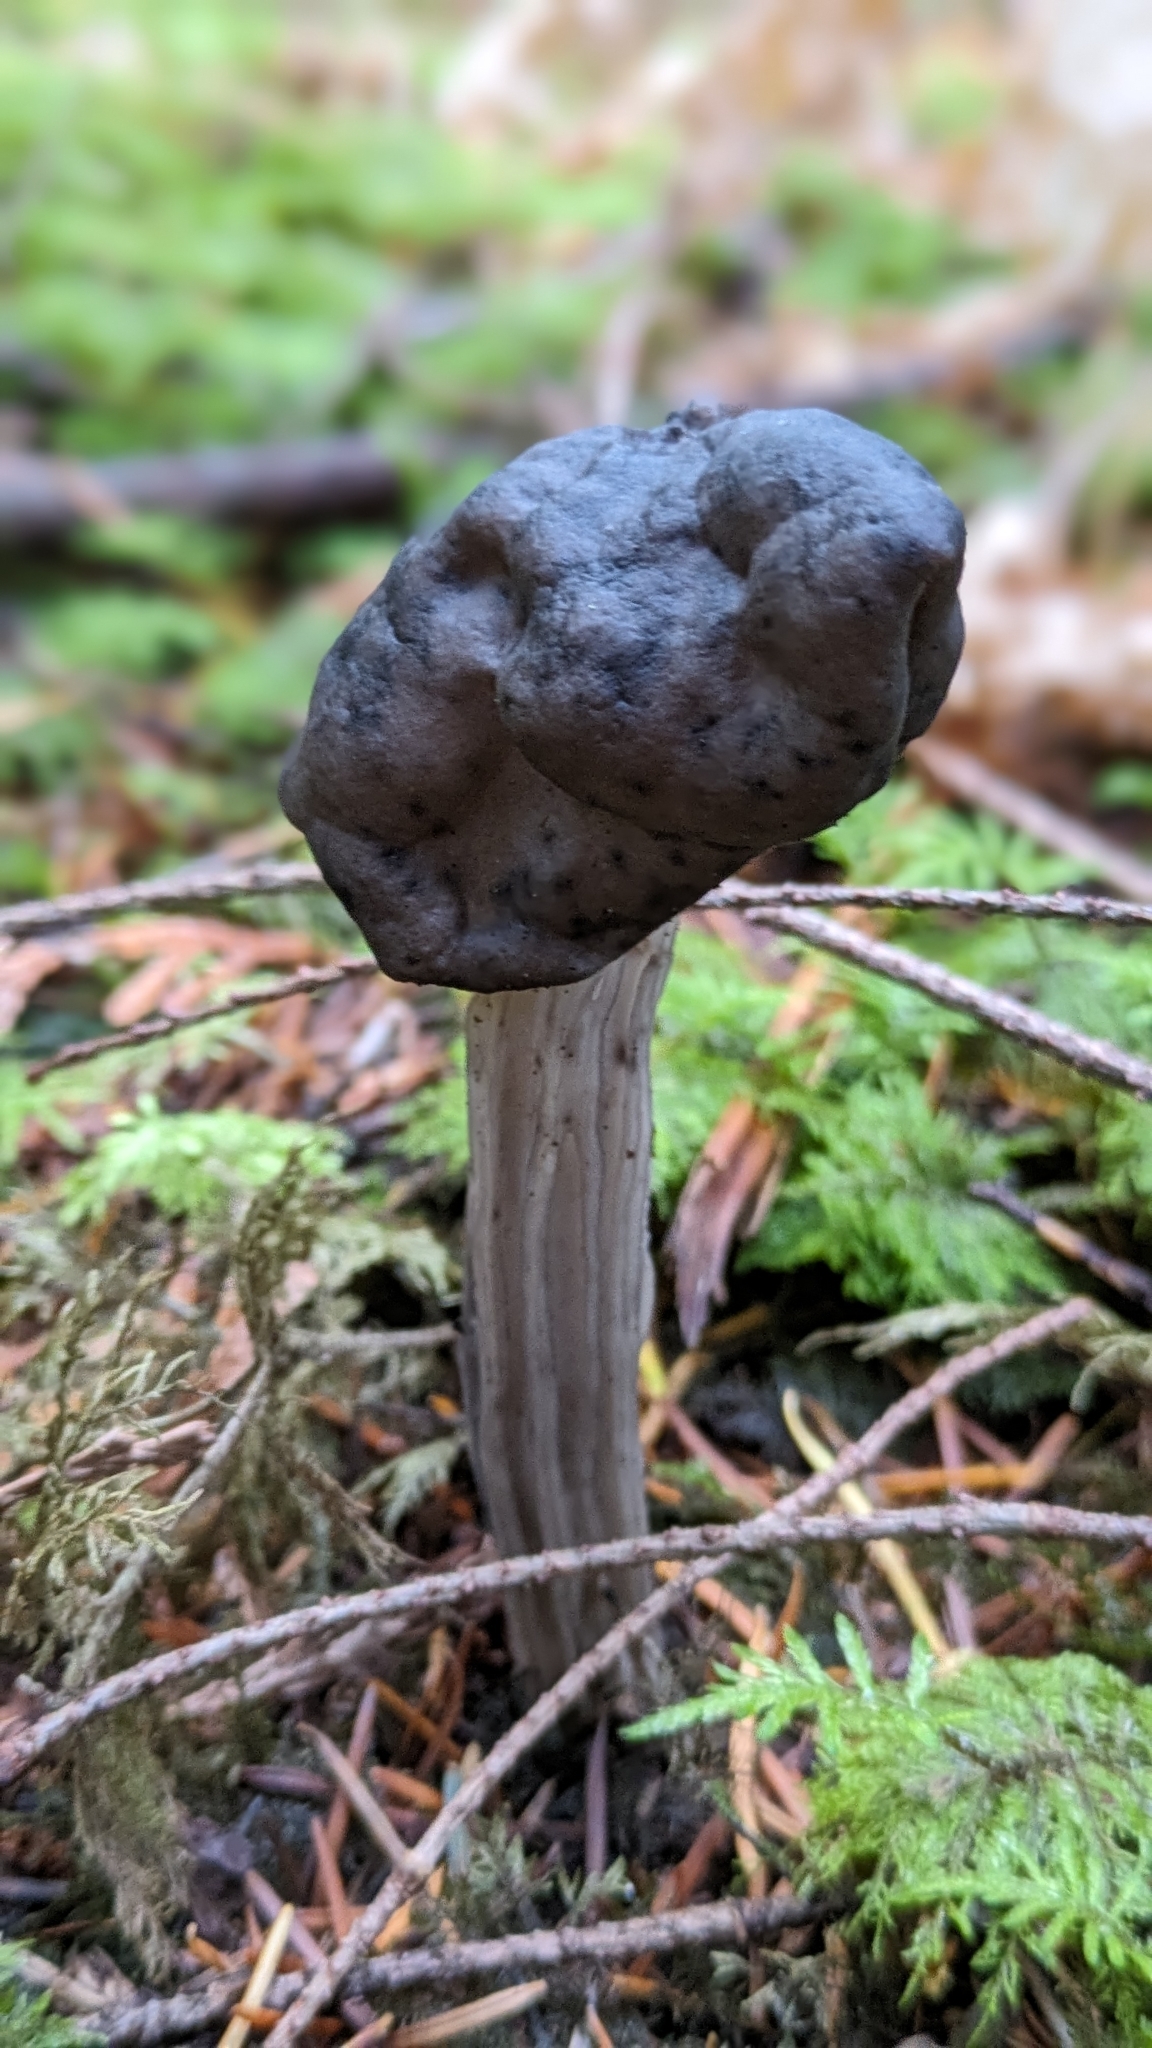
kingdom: Fungi
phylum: Ascomycota
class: Pezizomycetes
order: Pezizales
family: Helvellaceae
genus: Helvella
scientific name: Helvella vespertina
